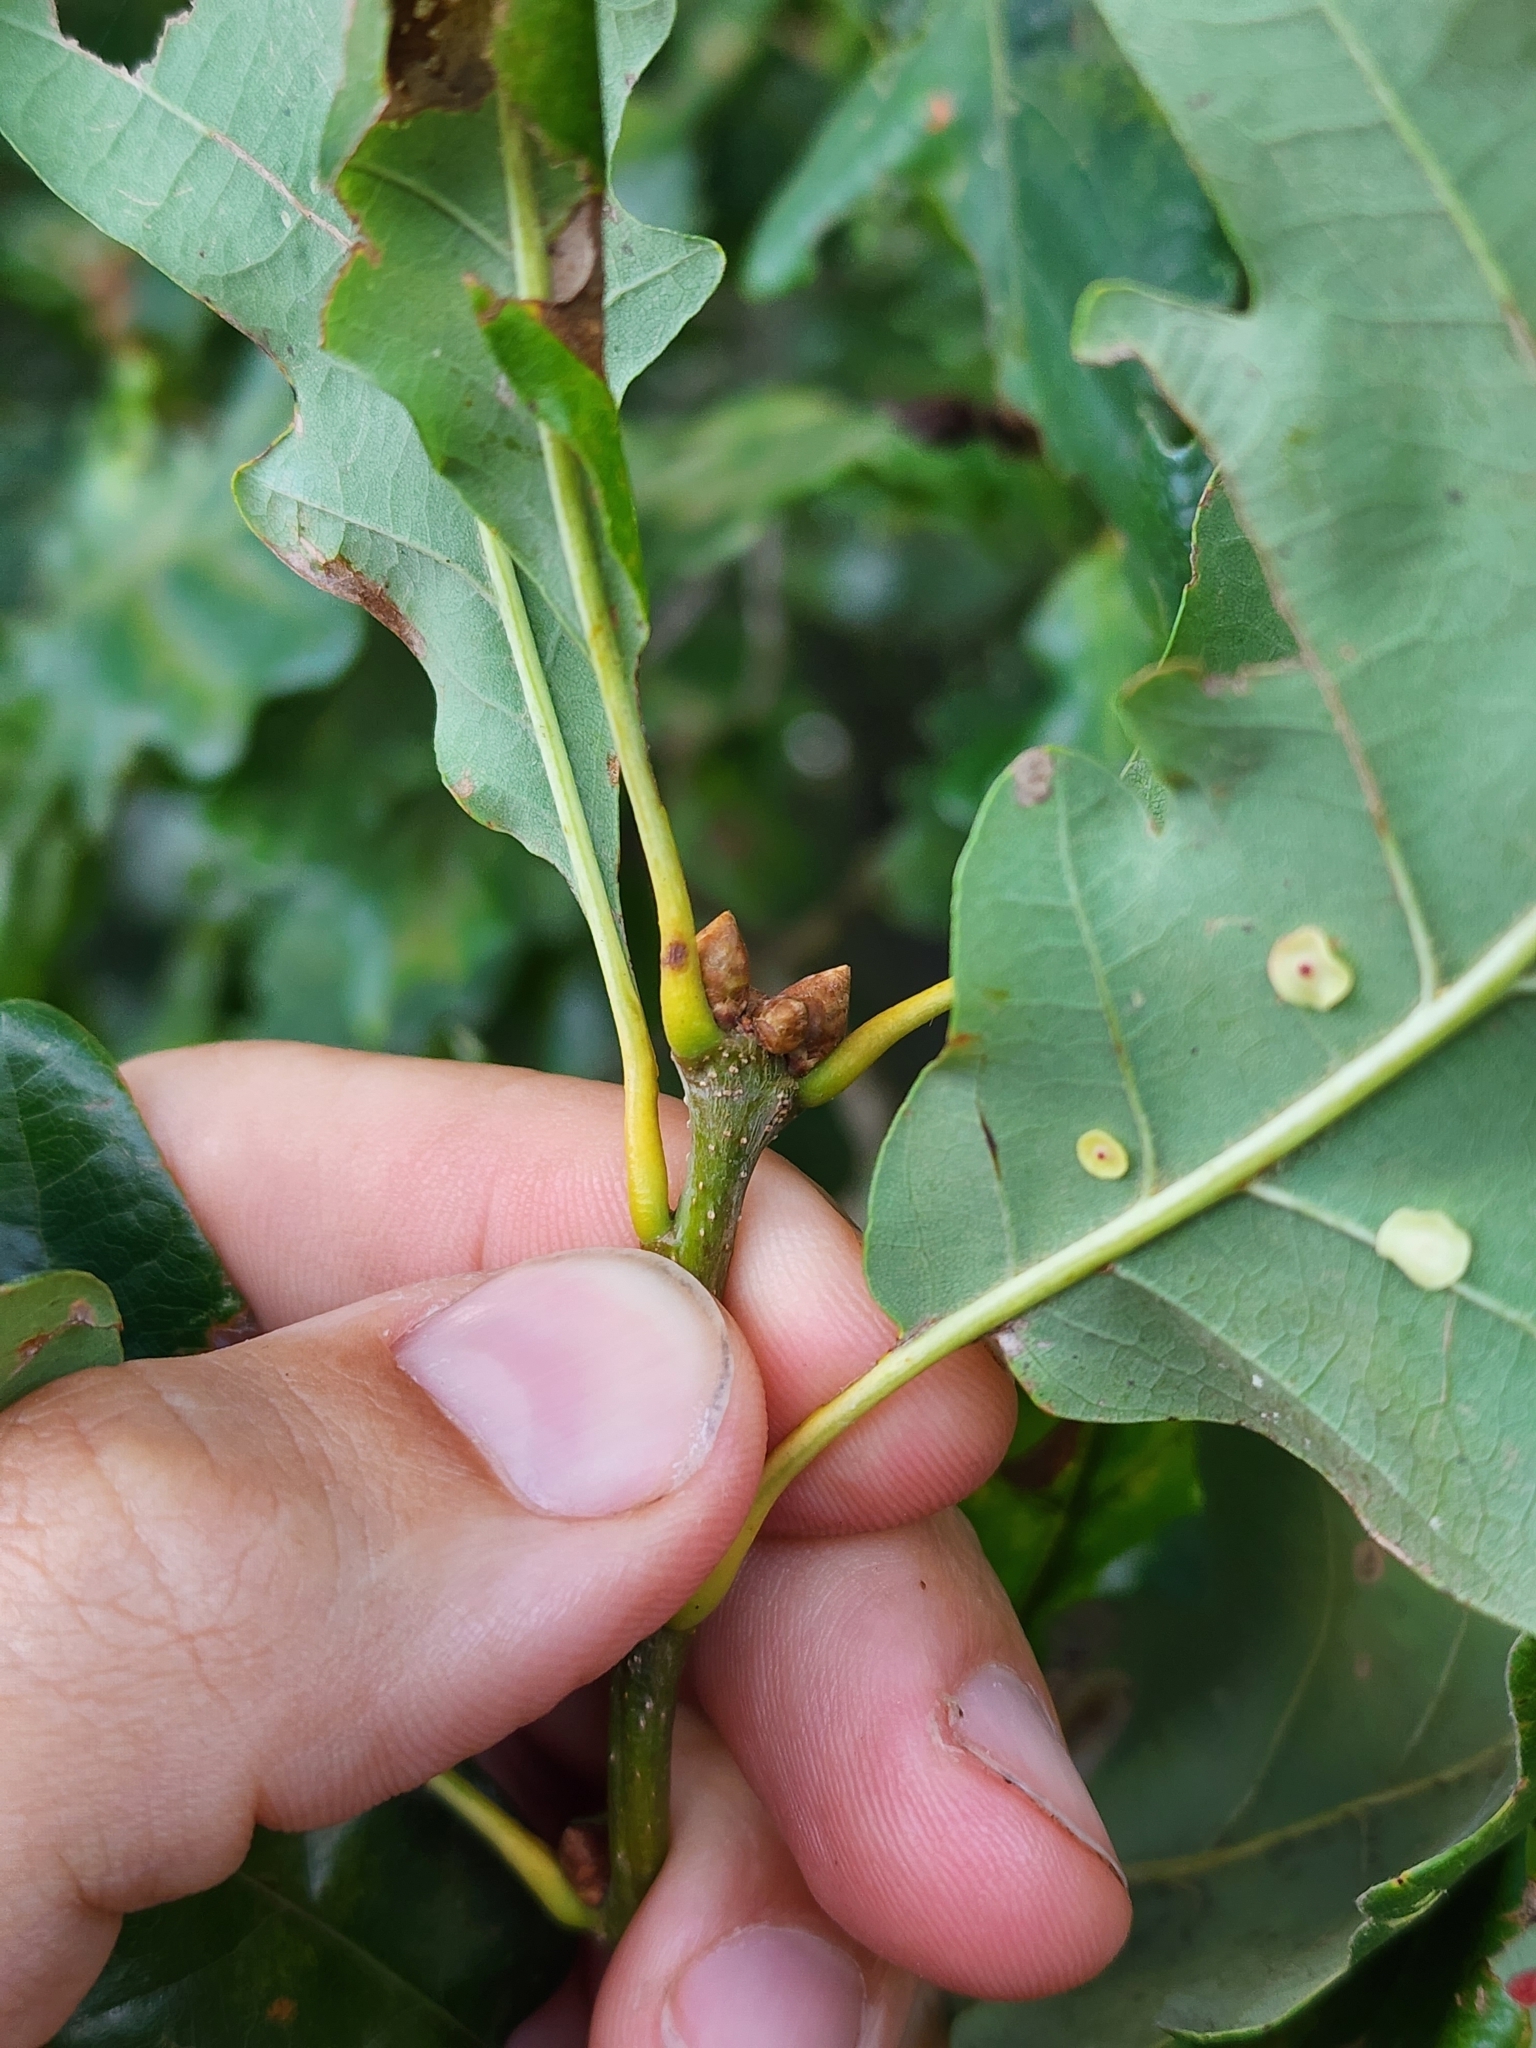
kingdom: Plantae
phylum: Tracheophyta
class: Magnoliopsida
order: Fagales
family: Fagaceae
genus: Quercus
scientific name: Quercus petraea
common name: Sessile oak
